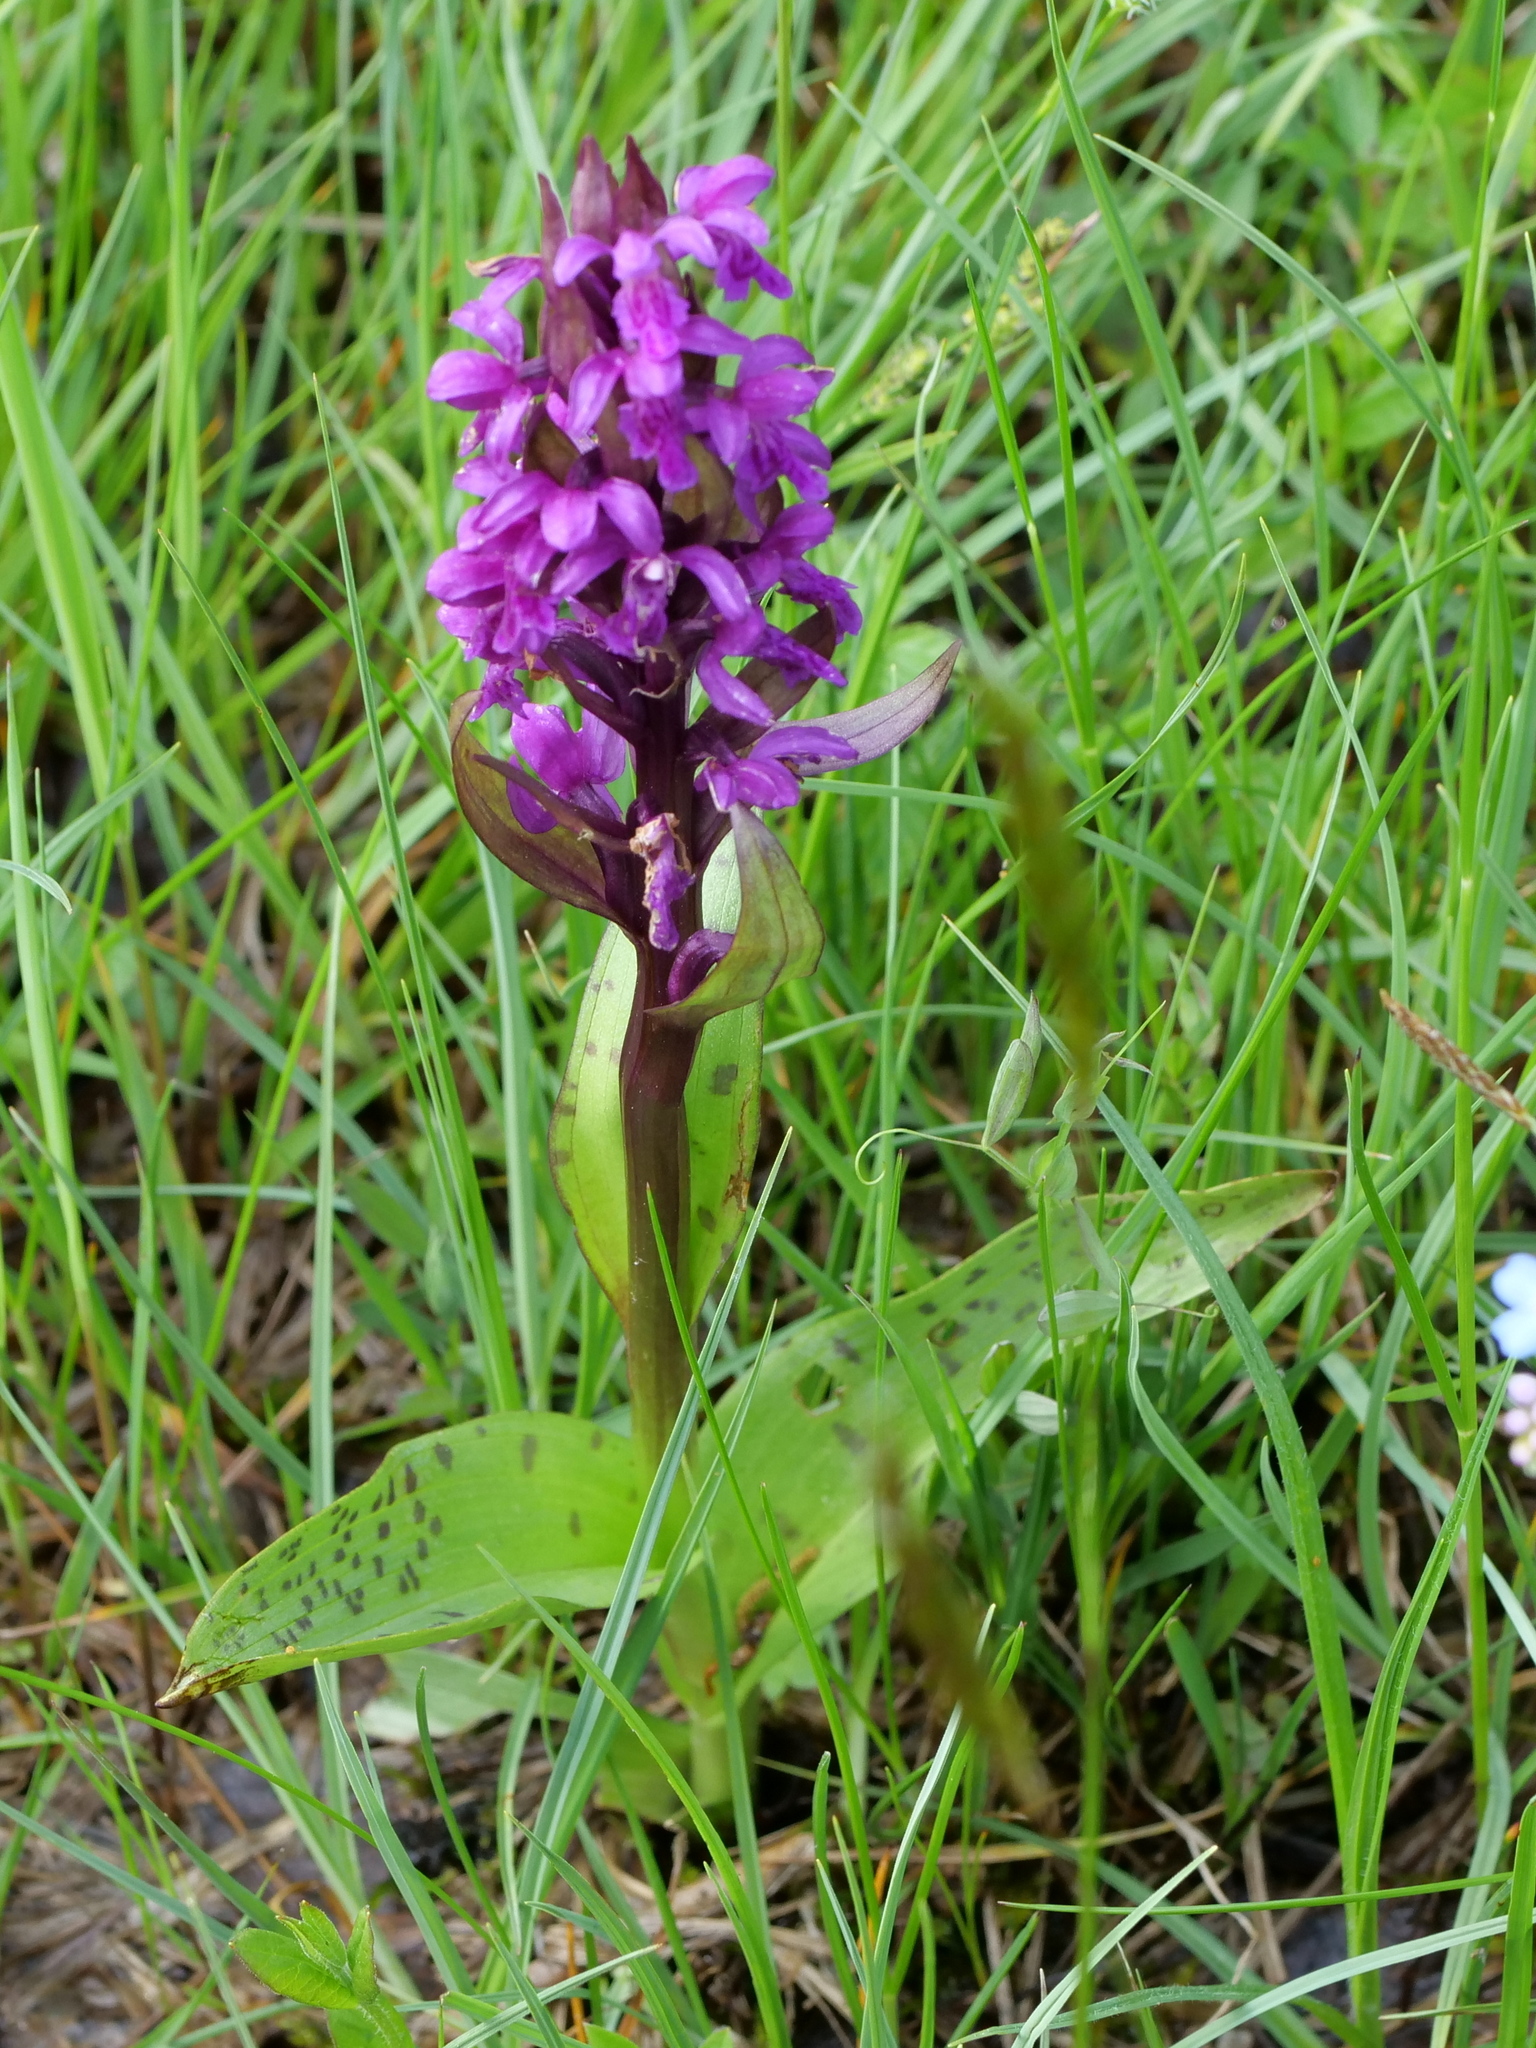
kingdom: Plantae
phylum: Tracheophyta
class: Liliopsida
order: Asparagales
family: Orchidaceae
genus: Dactylorhiza
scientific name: Dactylorhiza majalis
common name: Marsh orchid
